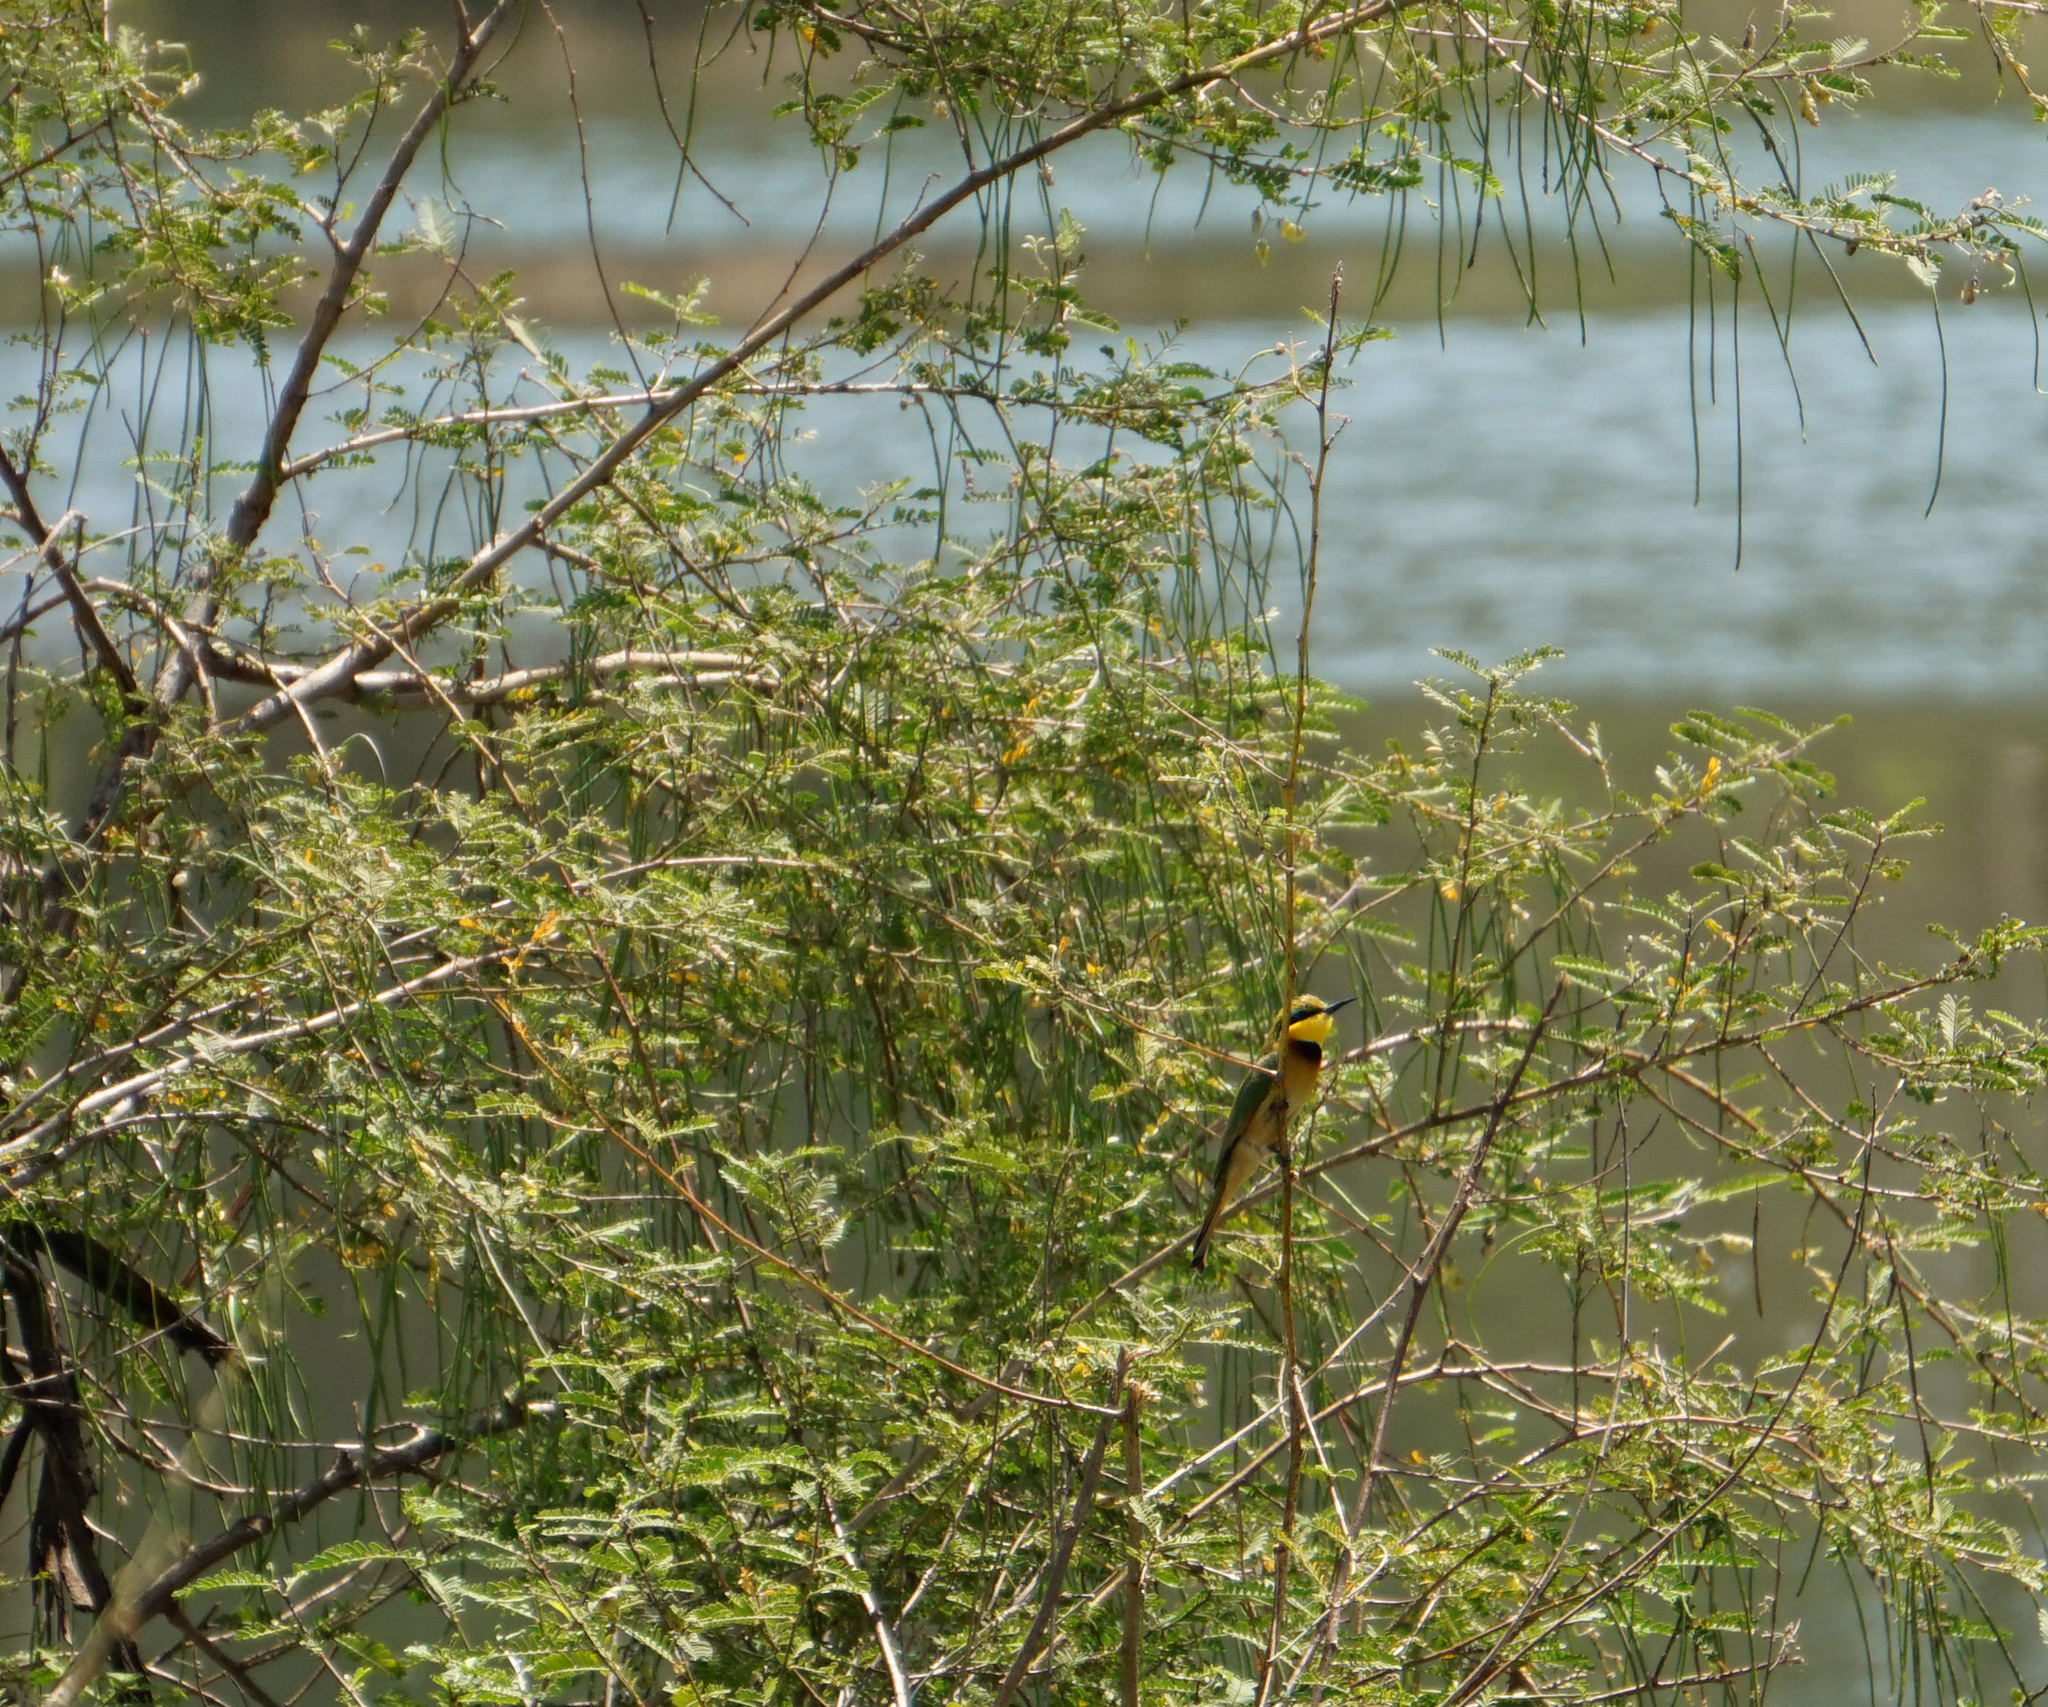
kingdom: Animalia
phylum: Chordata
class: Aves
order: Coraciiformes
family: Meropidae
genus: Merops
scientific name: Merops pusillus
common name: Little bee-eater
